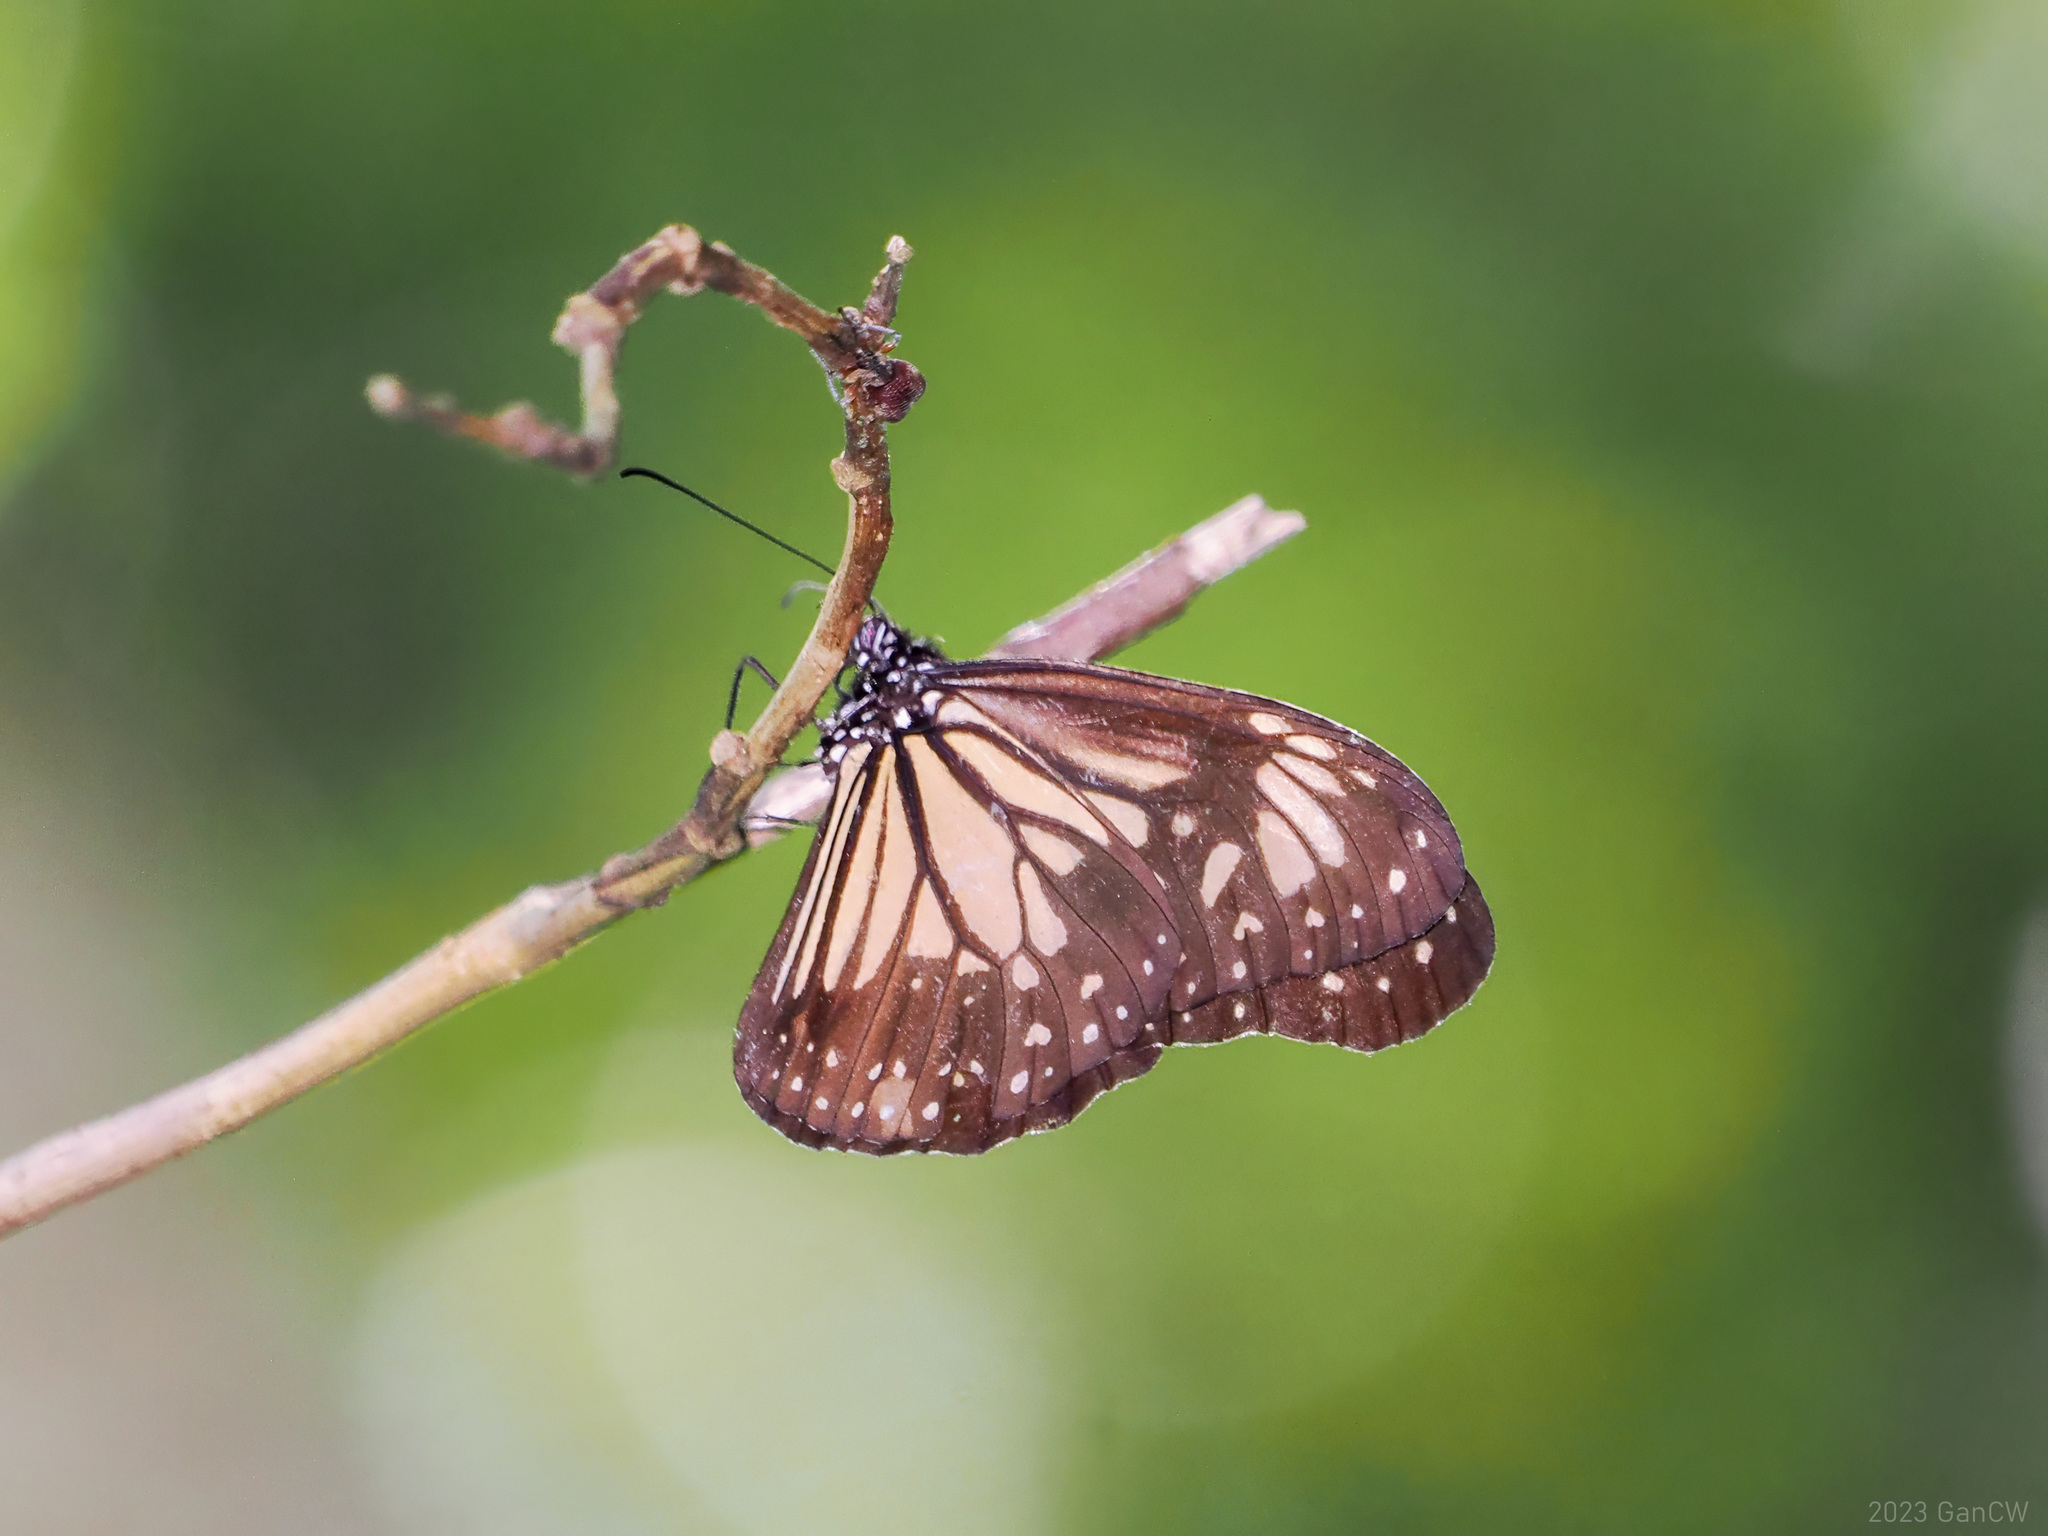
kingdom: Animalia
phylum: Arthropoda
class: Insecta
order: Lepidoptera
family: Nymphalidae
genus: Parantica
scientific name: Parantica menadensis
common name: Manado yellow tiger
